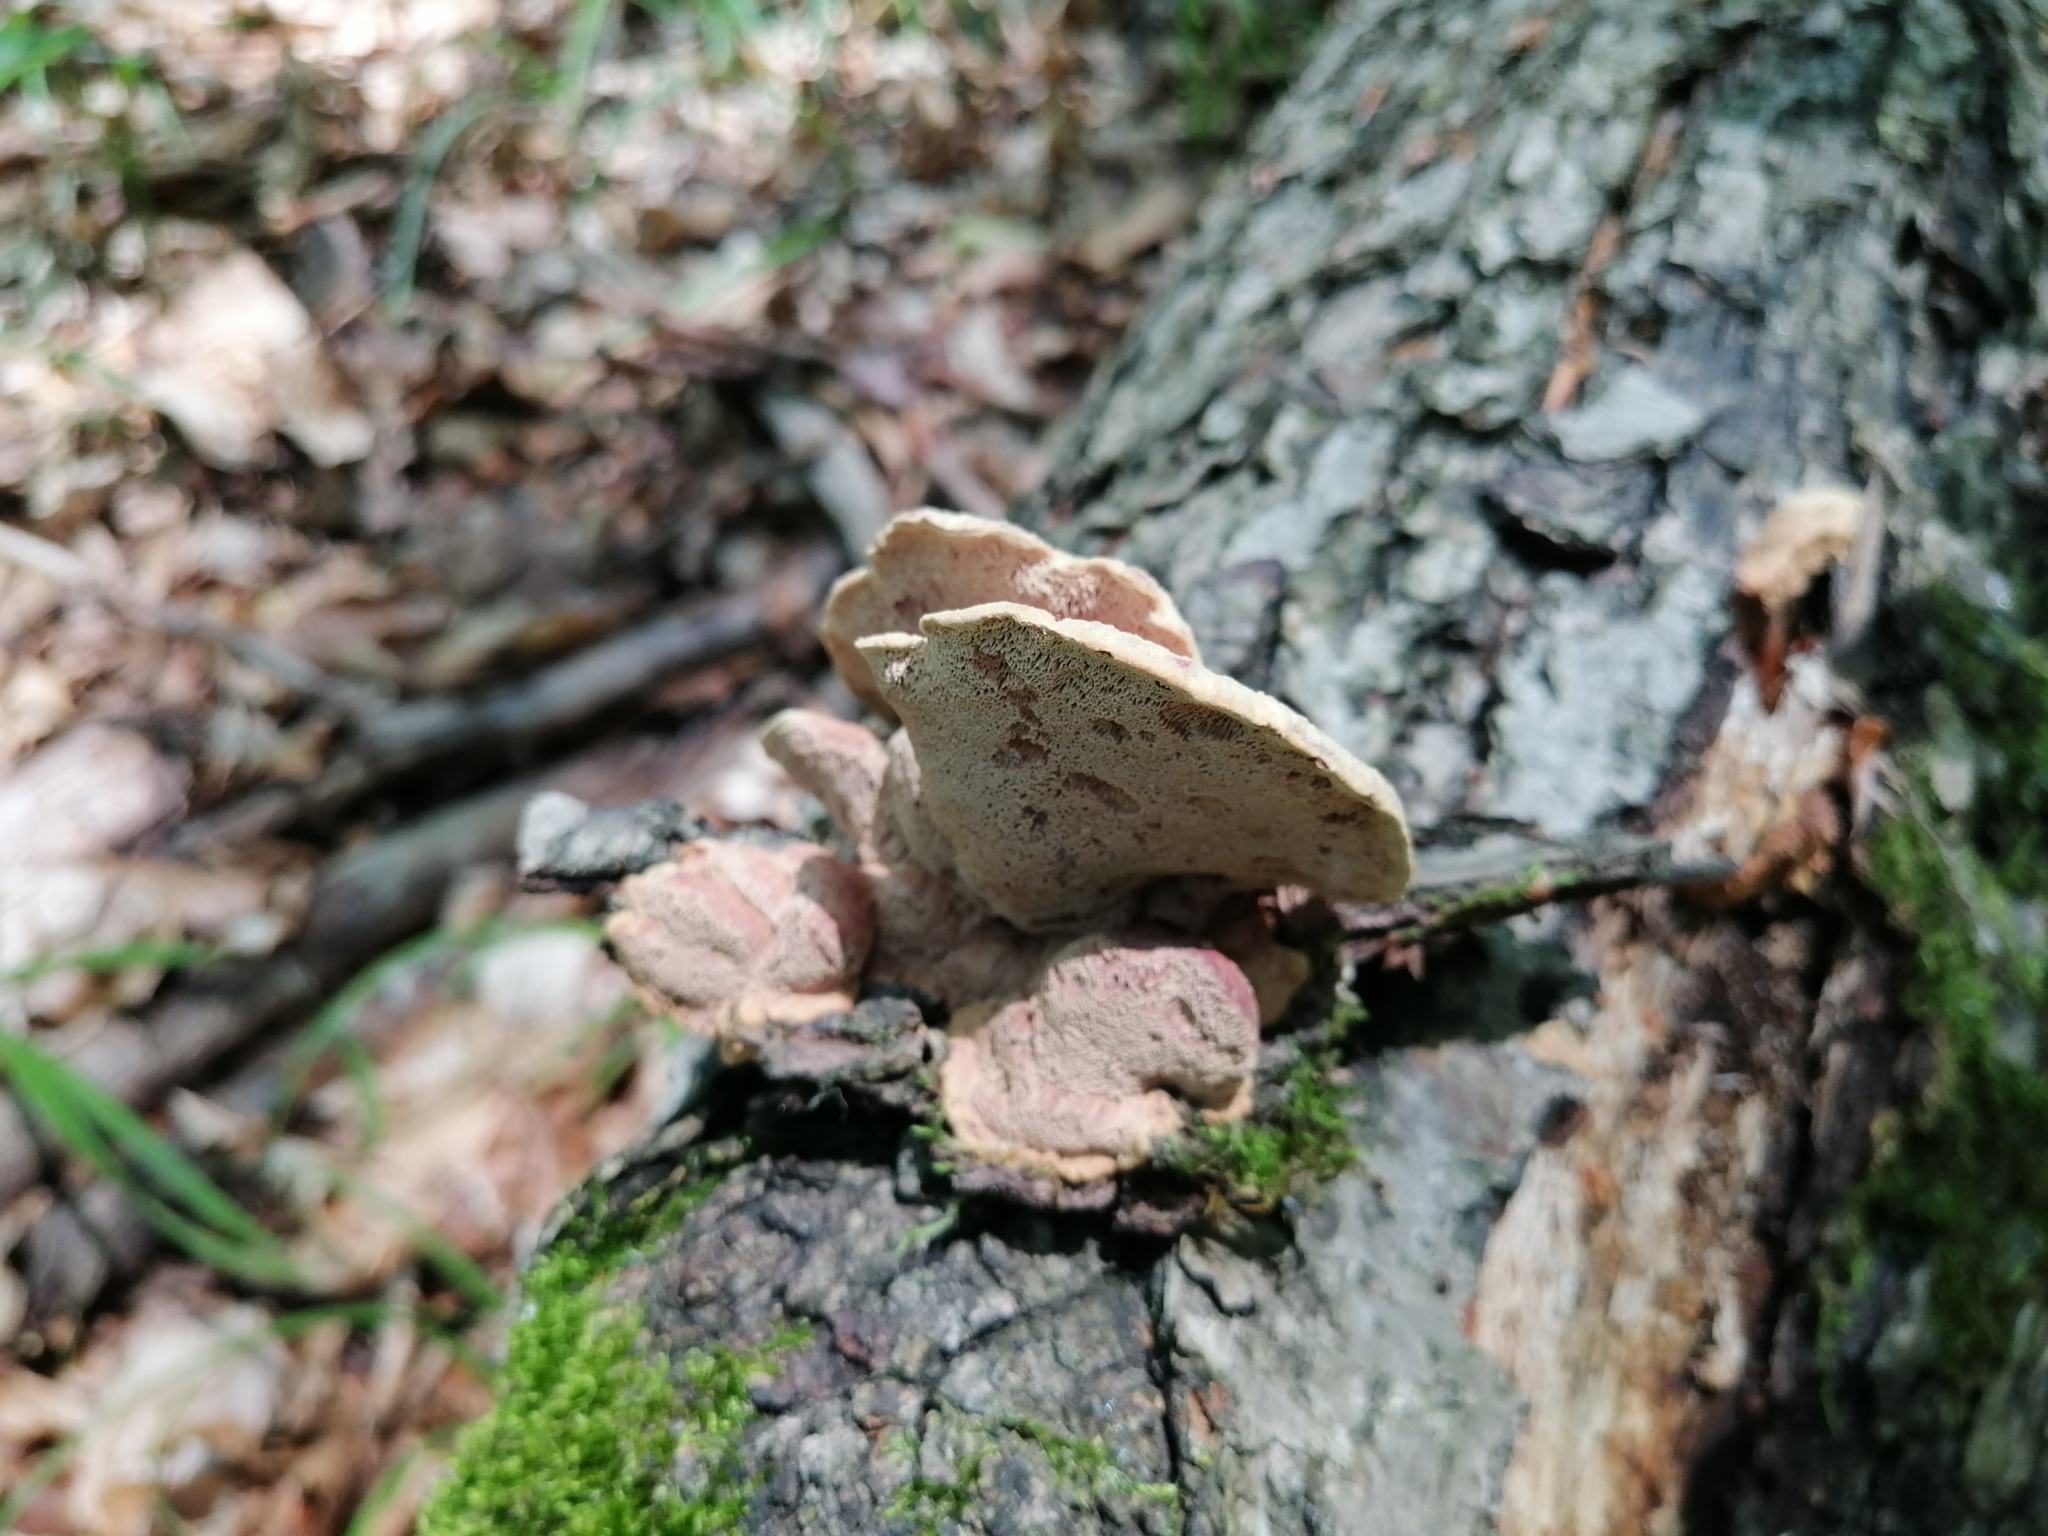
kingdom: Fungi
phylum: Basidiomycota
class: Agaricomycetes
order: Polyporales
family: Phanerochaetaceae
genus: Hapalopilus
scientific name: Hapalopilus rutilans
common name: Tender nesting polypore
